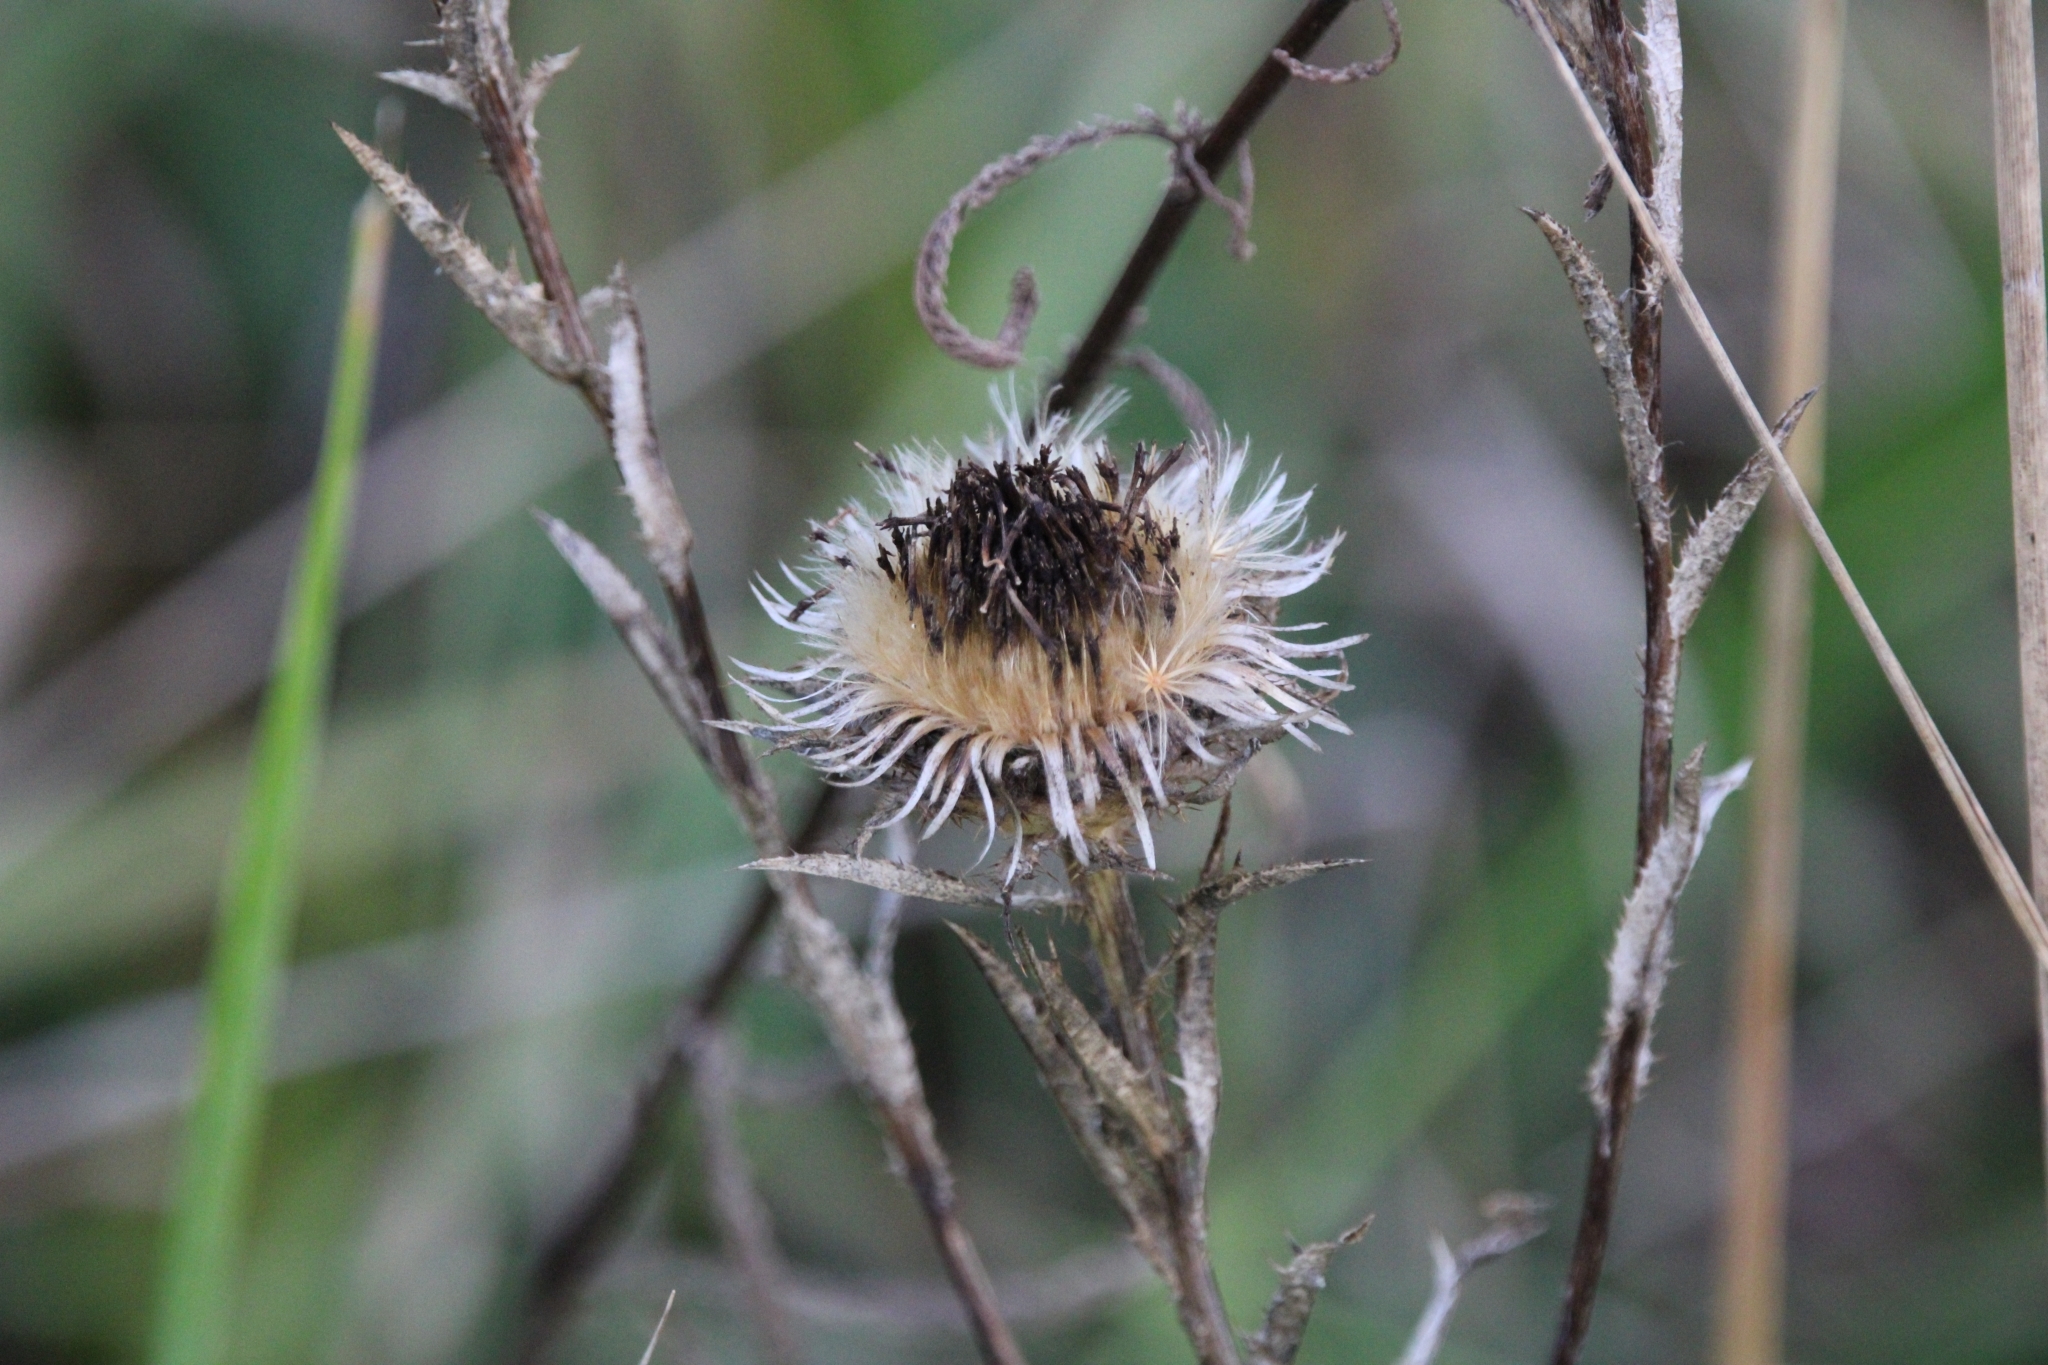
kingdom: Plantae
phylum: Tracheophyta
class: Magnoliopsida
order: Asterales
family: Asteraceae
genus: Carlina
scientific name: Carlina biebersteinii
